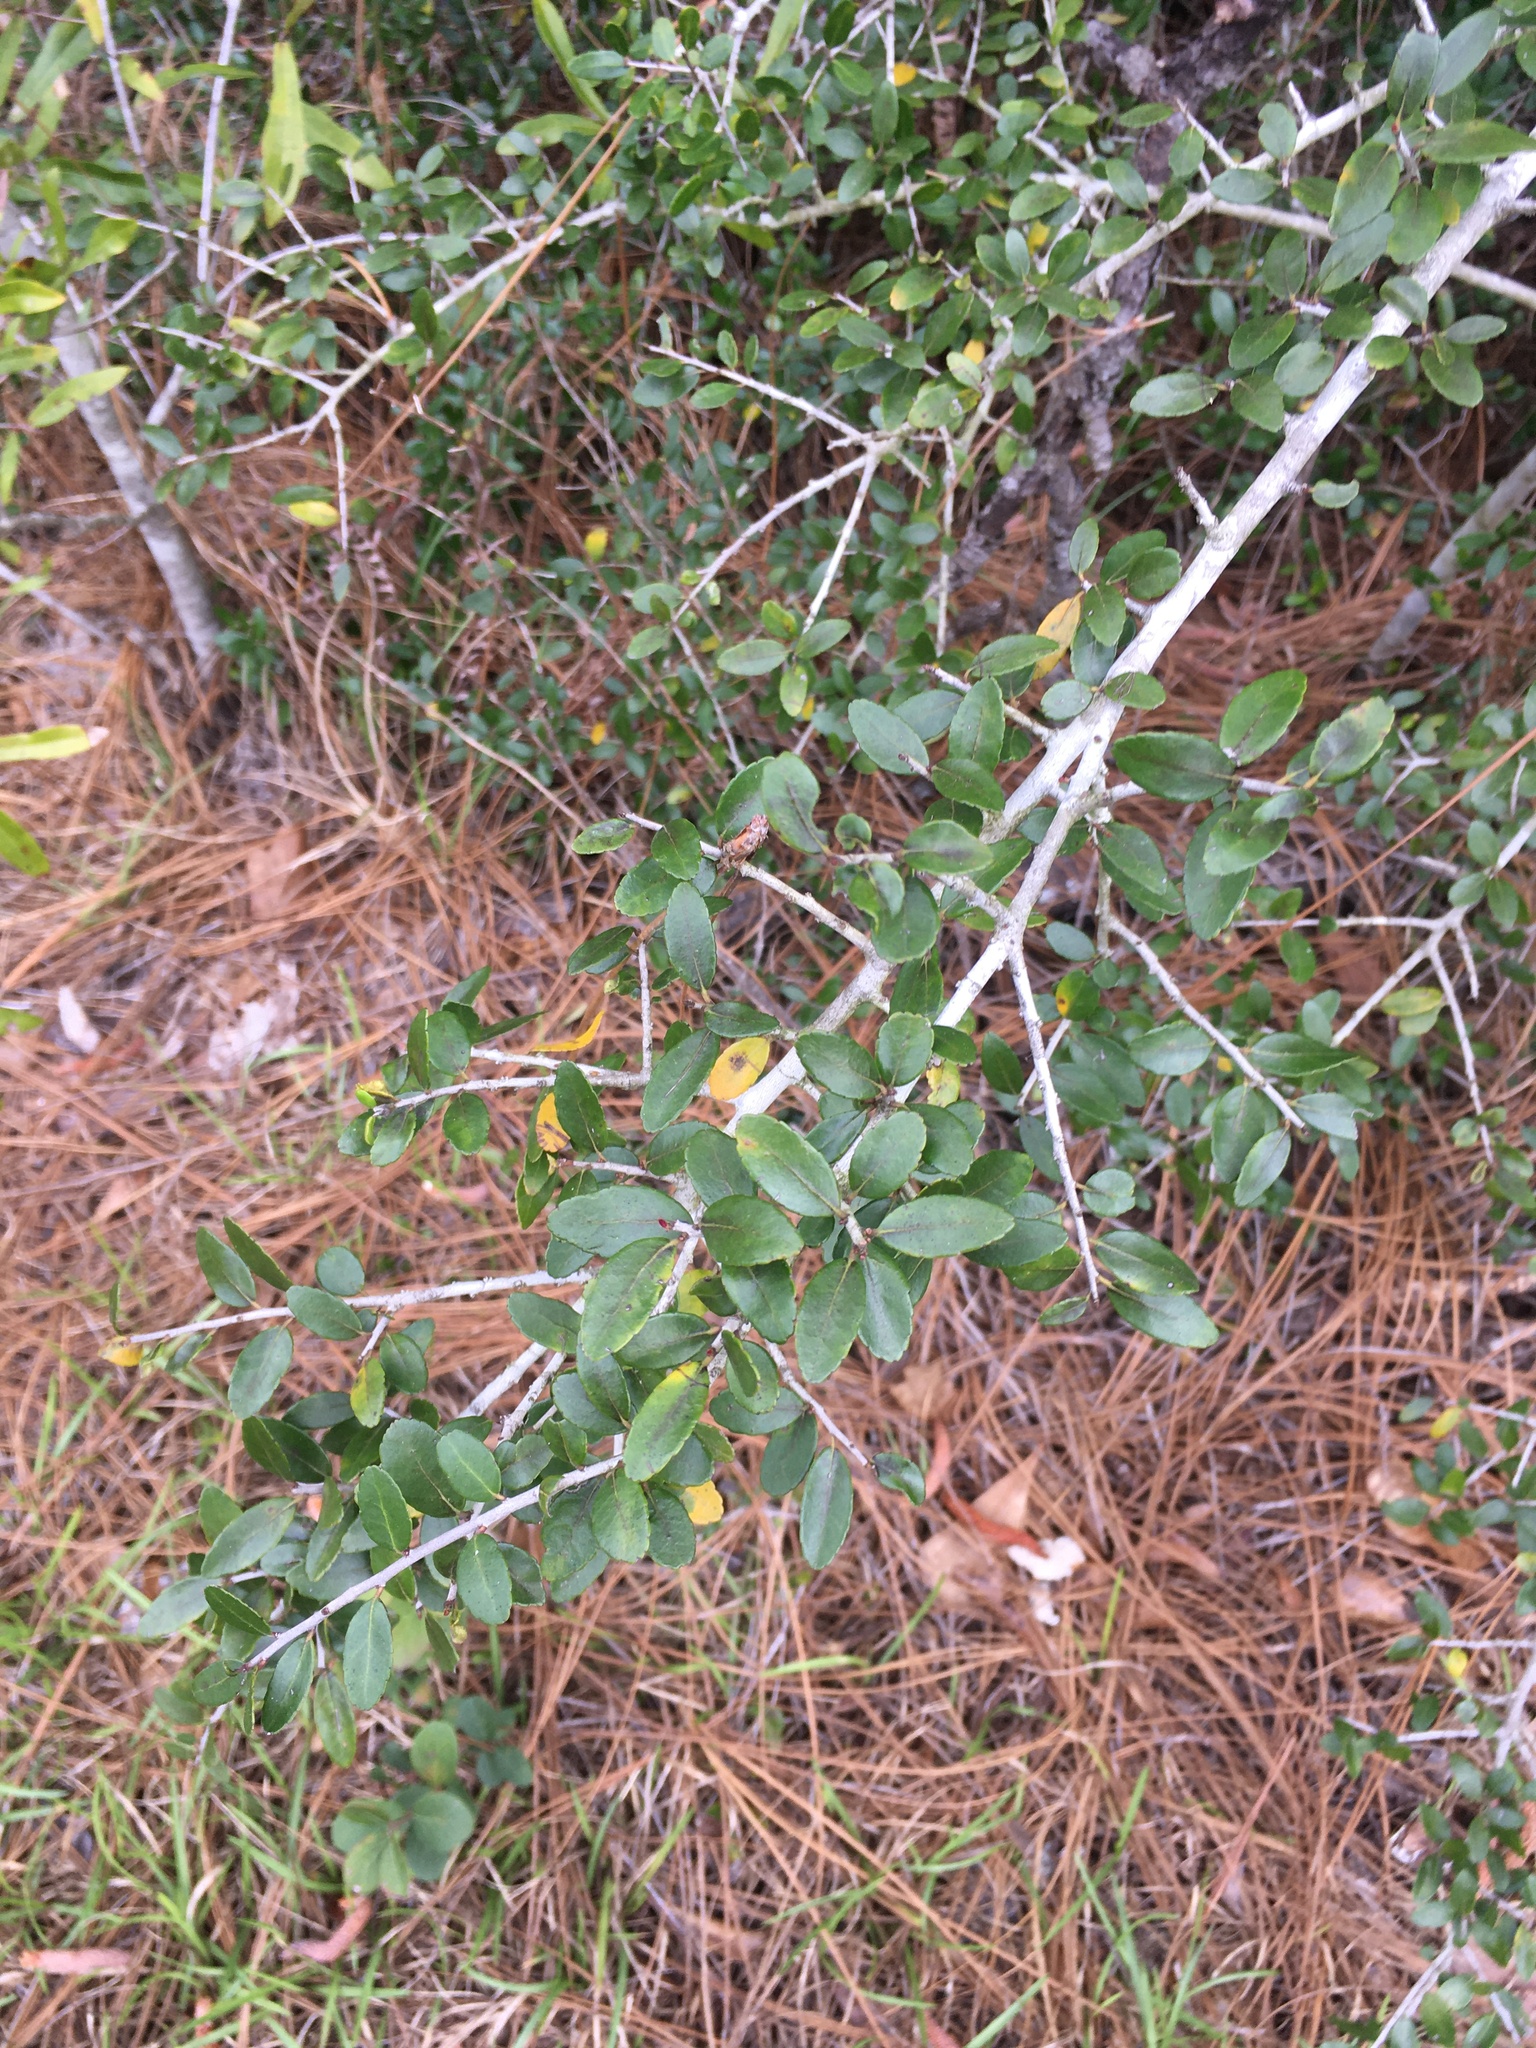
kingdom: Plantae
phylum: Tracheophyta
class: Magnoliopsida
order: Aquifoliales
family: Aquifoliaceae
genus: Ilex
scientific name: Ilex vomitoria
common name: Yaupon holly
